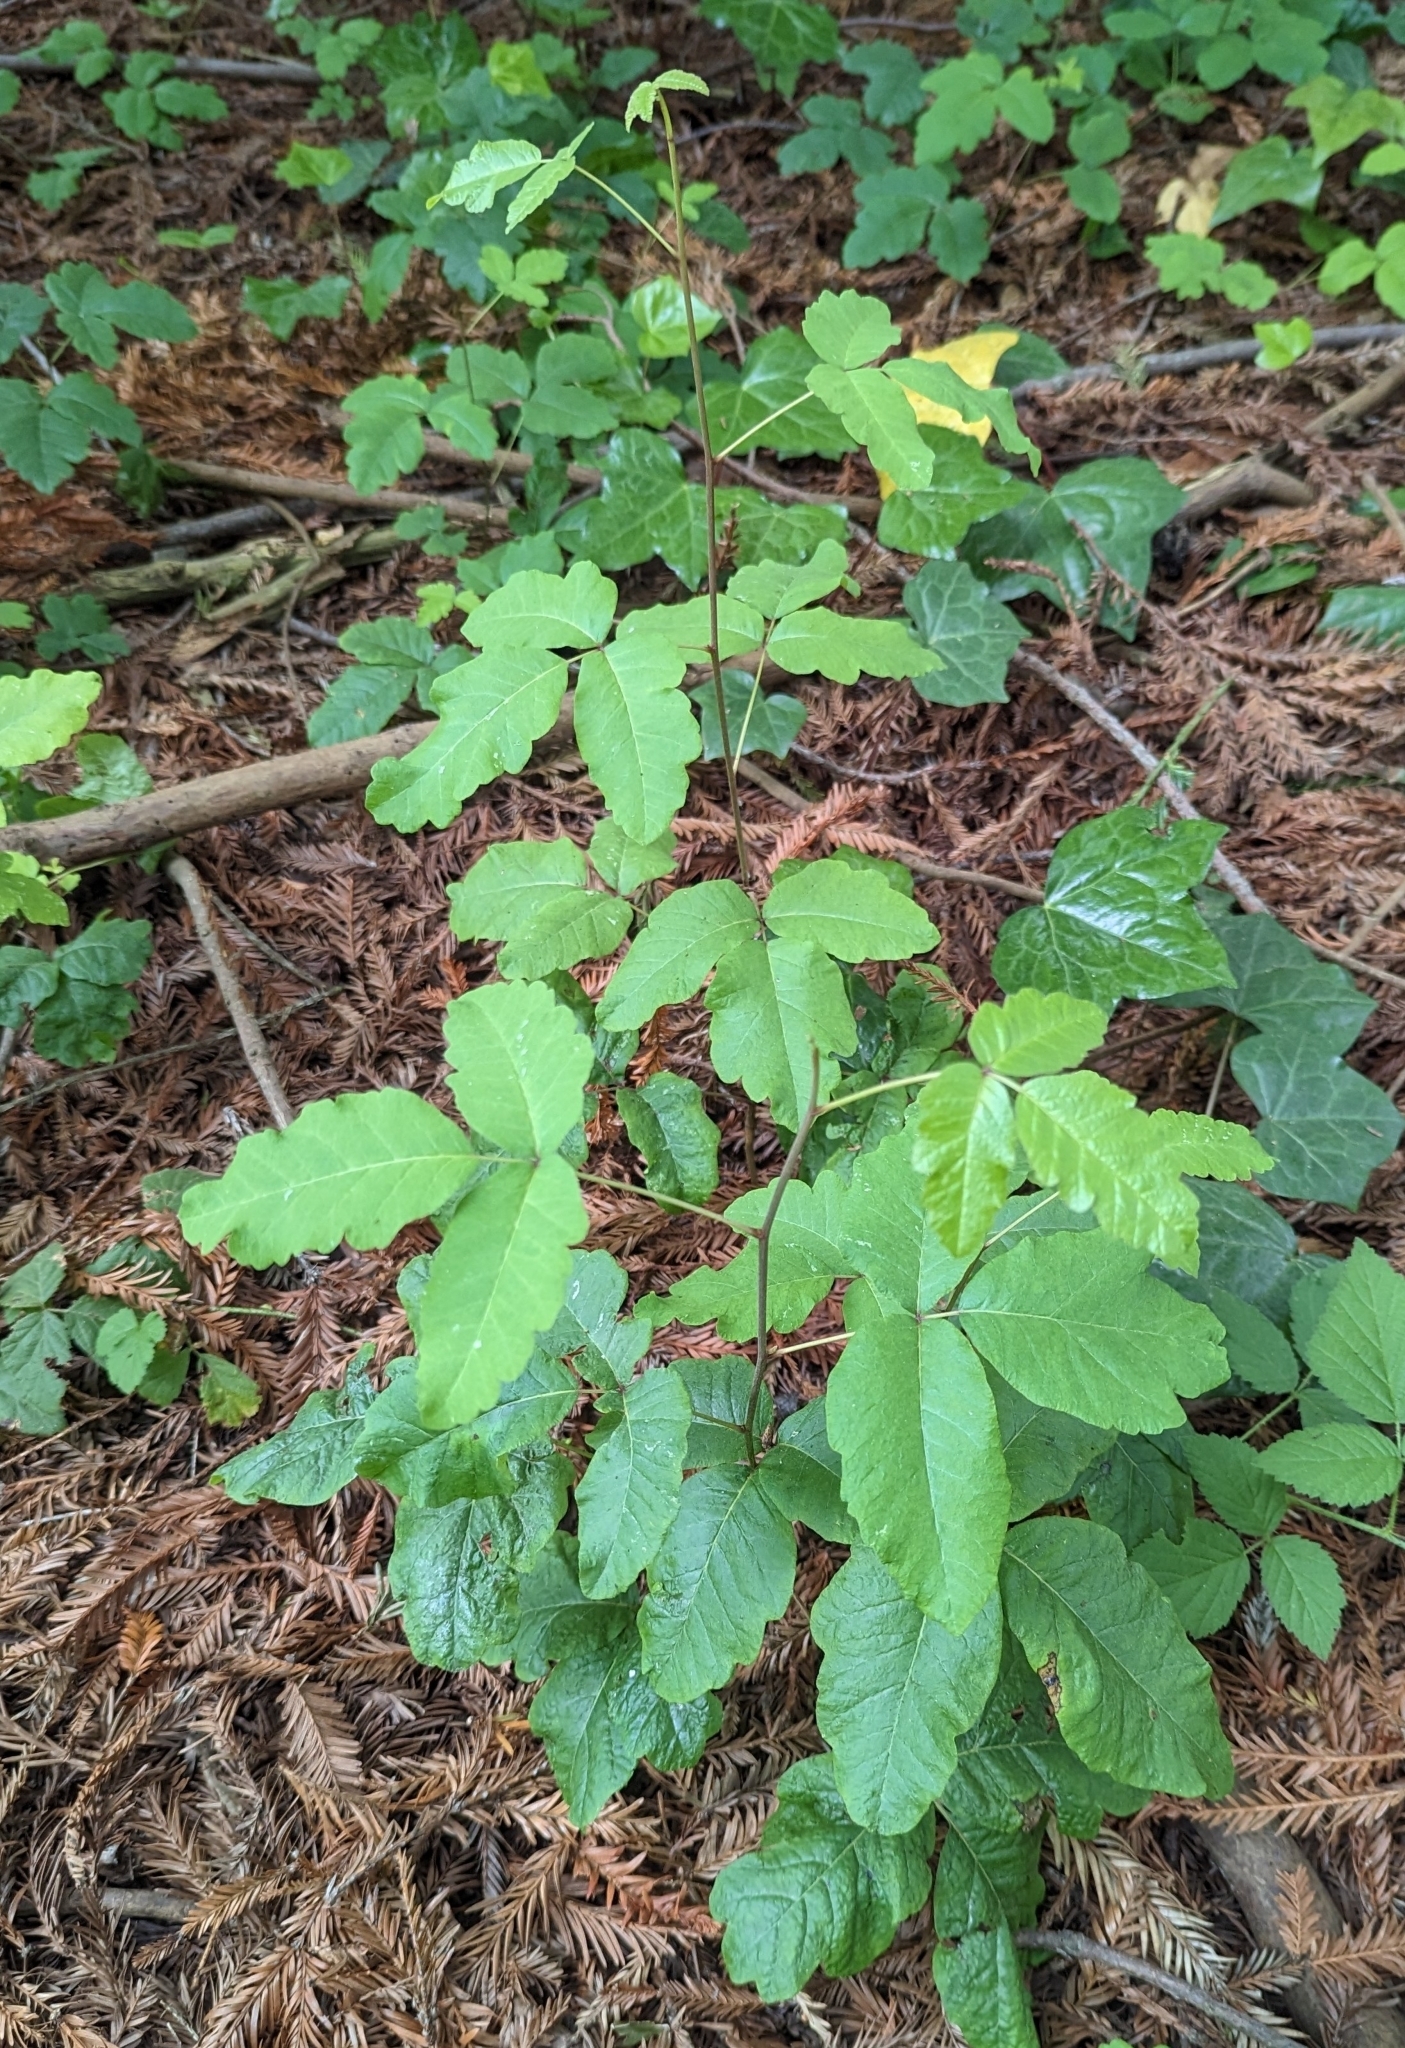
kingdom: Plantae
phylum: Tracheophyta
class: Magnoliopsida
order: Sapindales
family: Anacardiaceae
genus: Toxicodendron
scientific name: Toxicodendron diversilobum
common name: Pacific poison-oak
